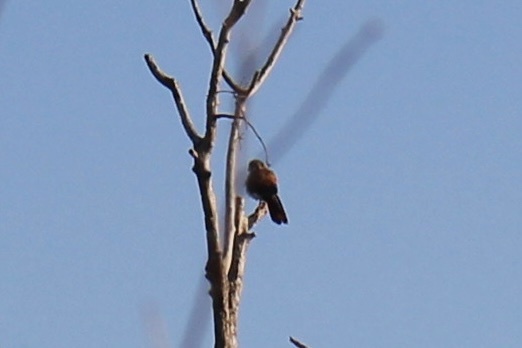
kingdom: Animalia
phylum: Chordata
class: Aves
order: Falconiformes
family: Falconidae
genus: Falco
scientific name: Falco sparverius
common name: American kestrel
